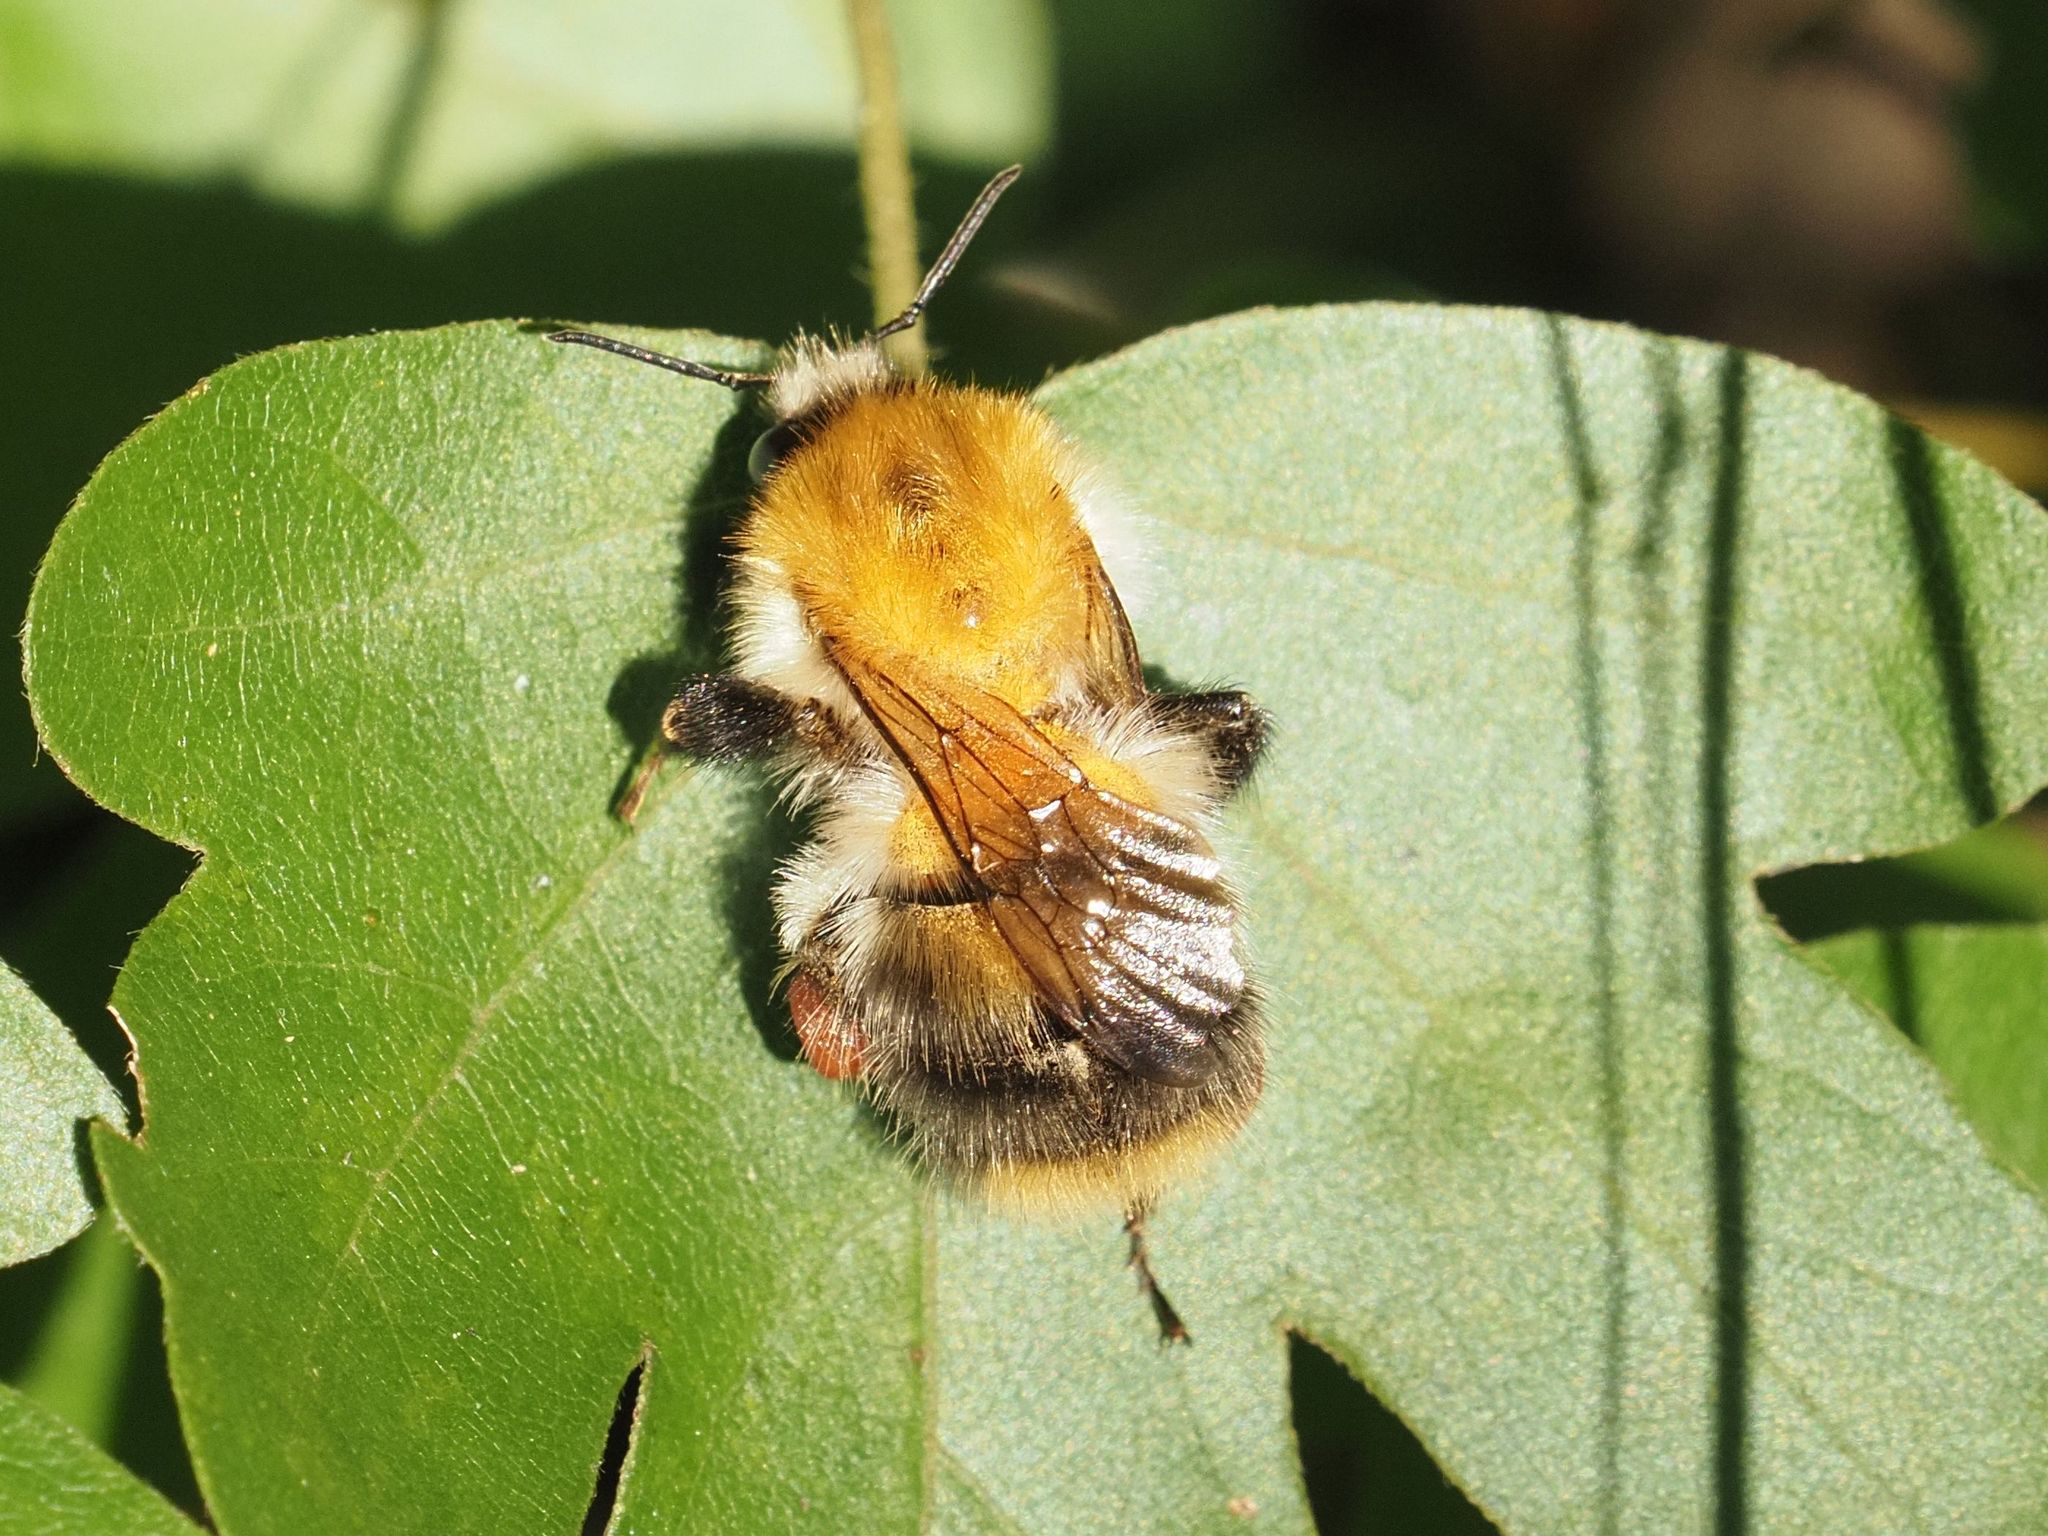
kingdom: Animalia
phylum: Arthropoda
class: Insecta
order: Hymenoptera
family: Apidae
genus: Bombus
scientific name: Bombus pascuorum
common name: Common carder bee
